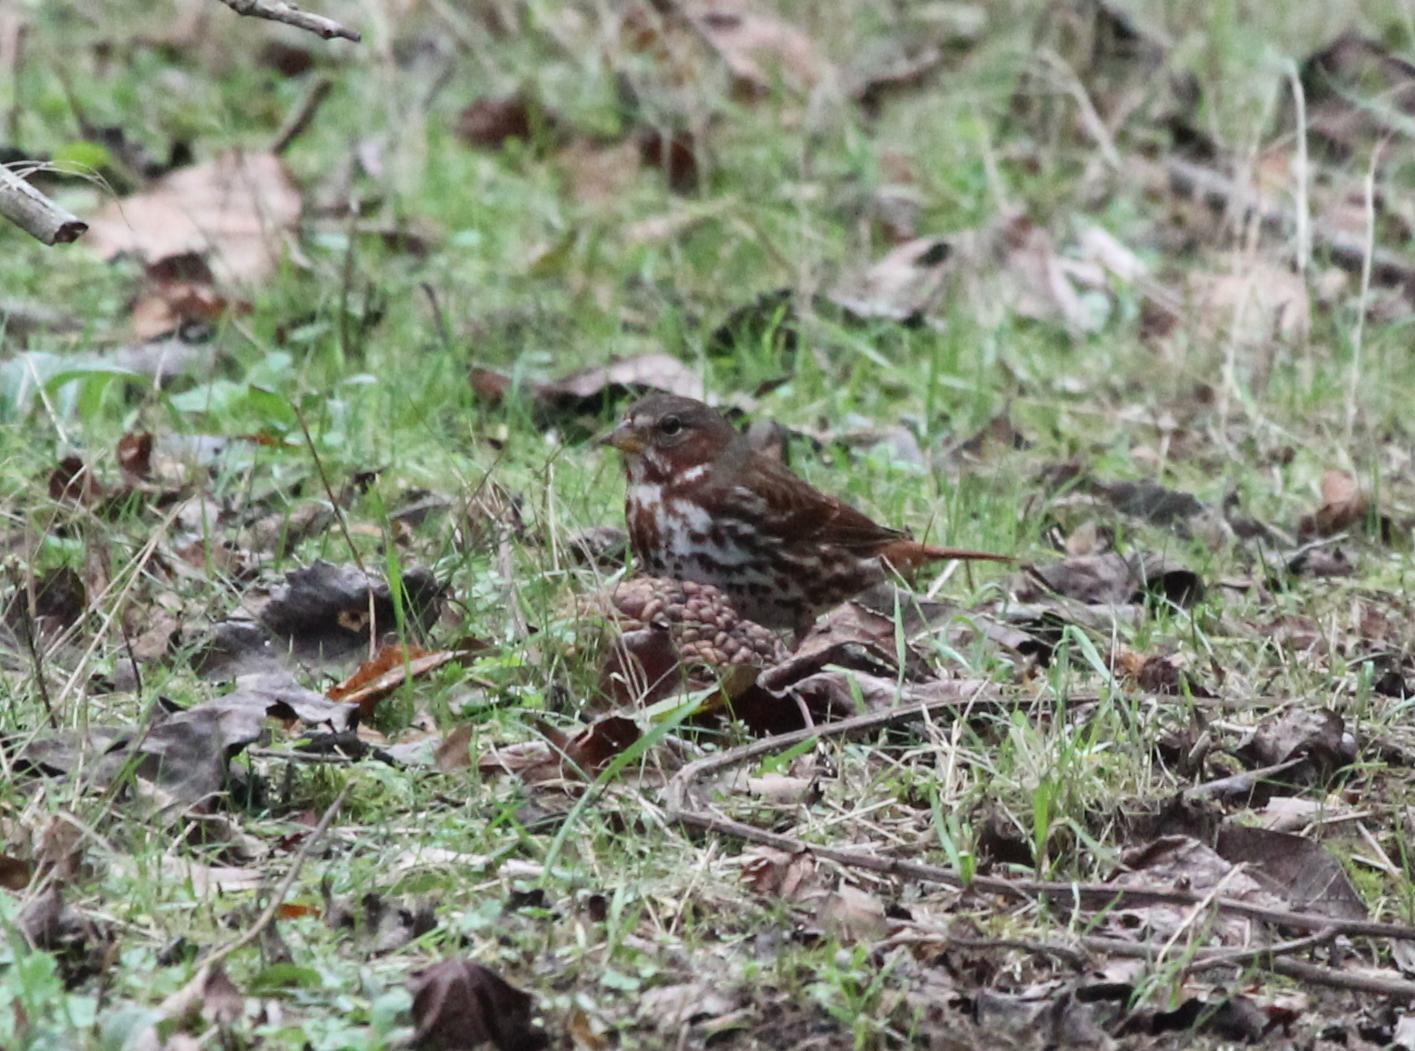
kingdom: Animalia
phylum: Chordata
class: Aves
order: Passeriformes
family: Passerellidae
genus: Passerella
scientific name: Passerella iliaca
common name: Fox sparrow
